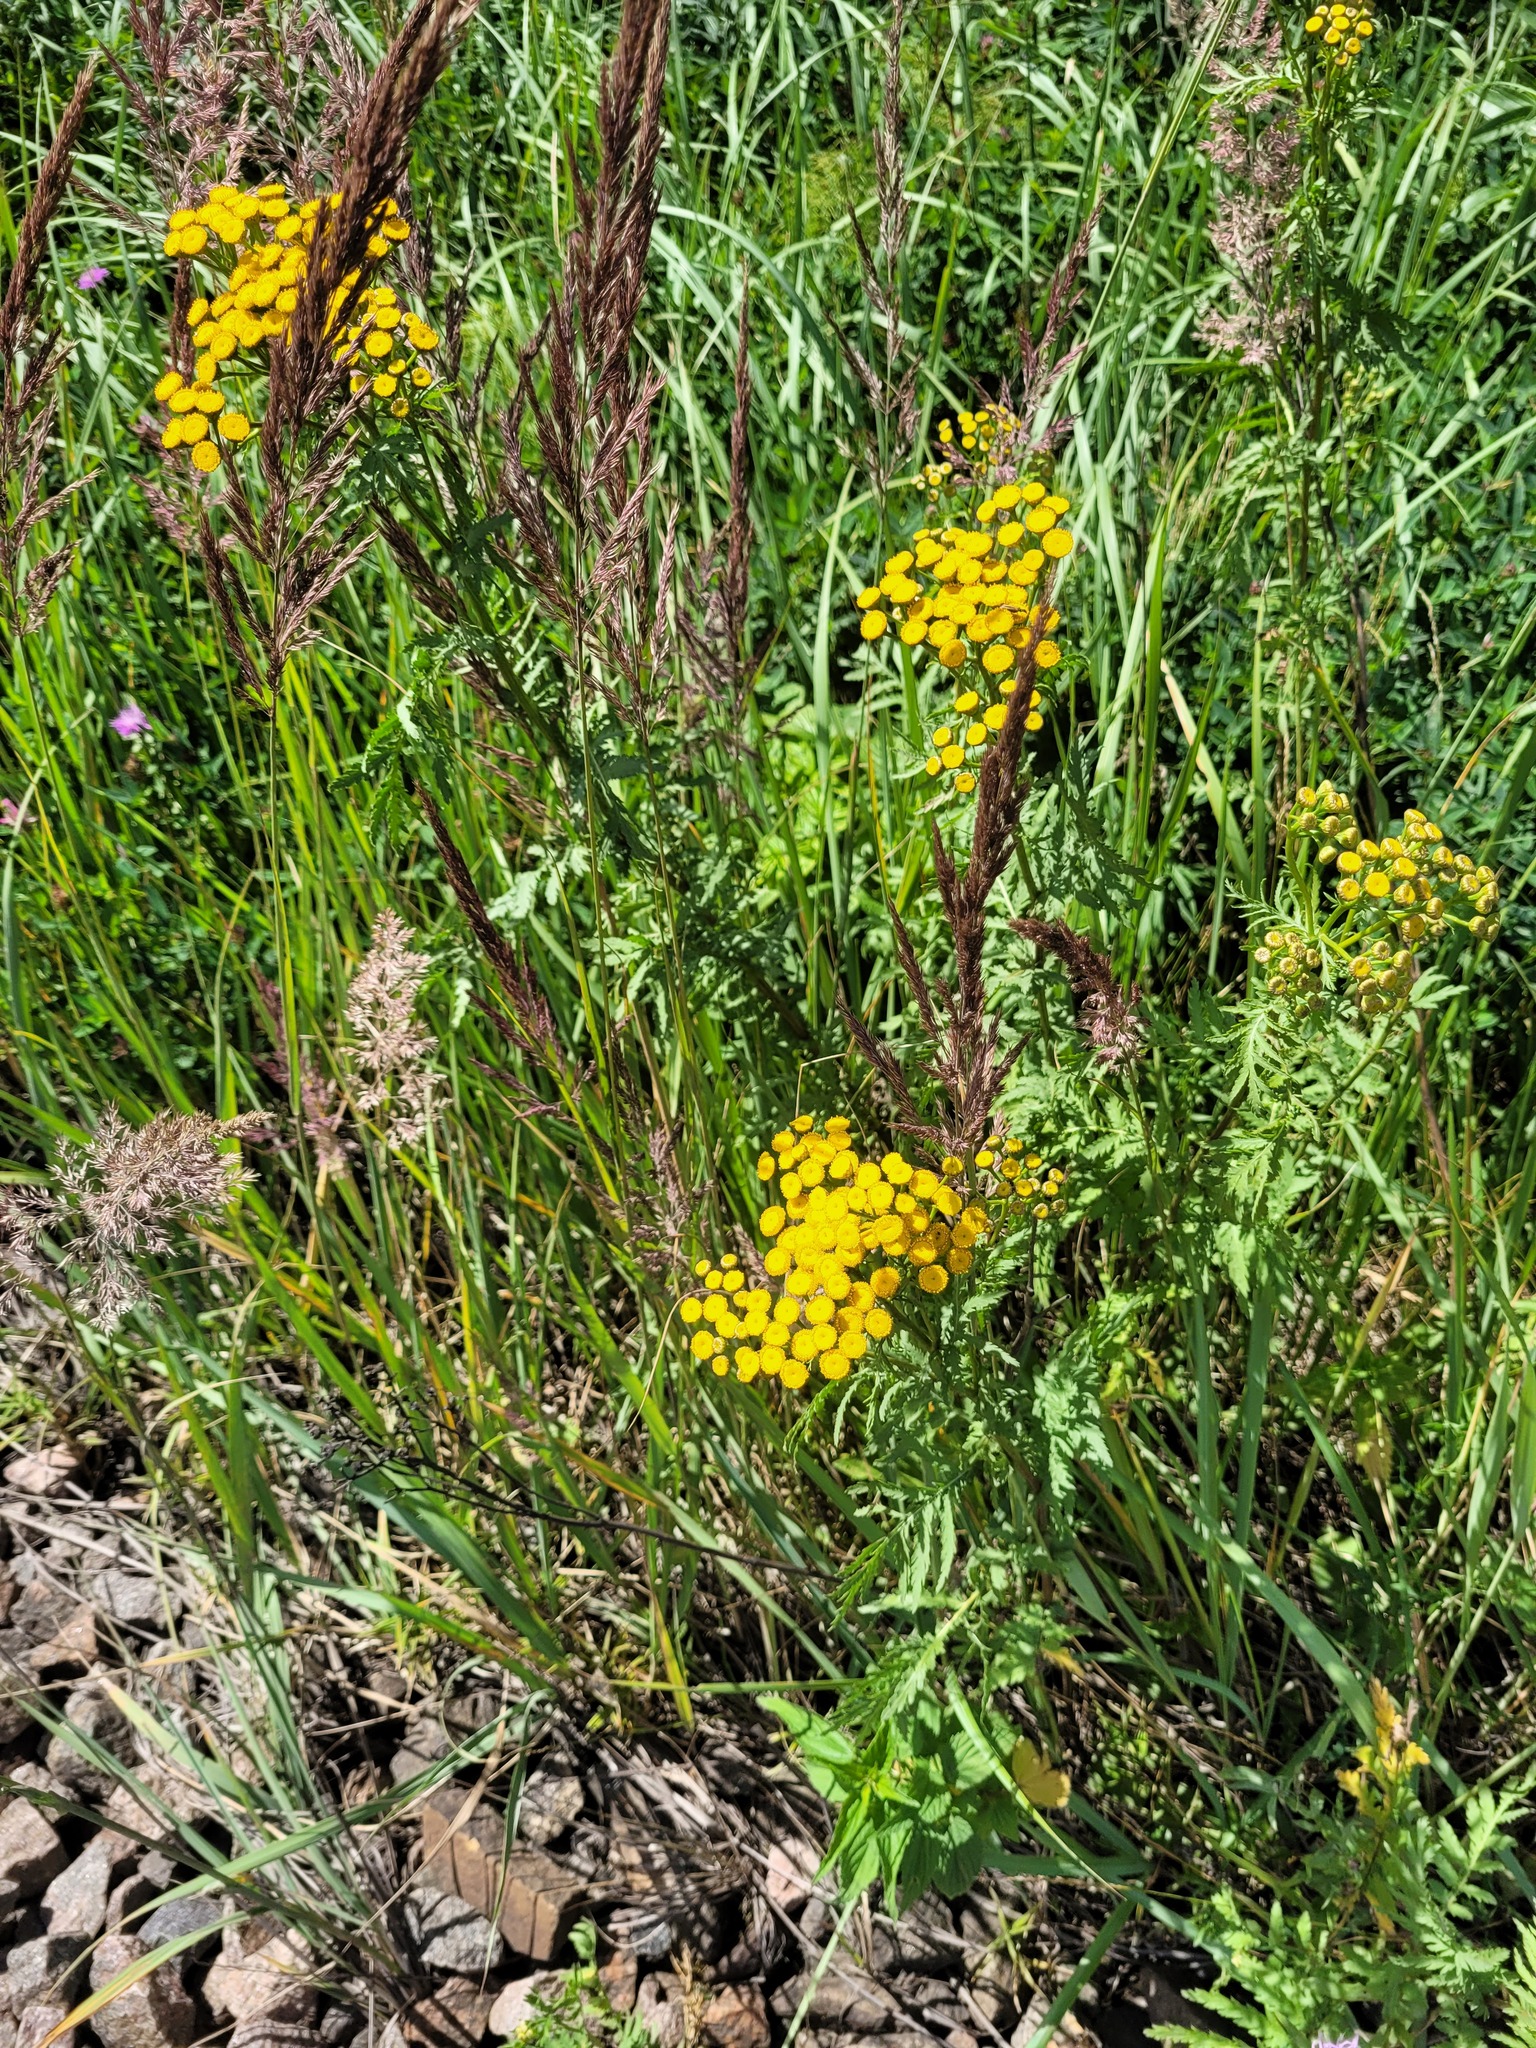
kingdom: Plantae
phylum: Tracheophyta
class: Magnoliopsida
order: Asterales
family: Asteraceae
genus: Tanacetum
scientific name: Tanacetum vulgare
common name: Common tansy
